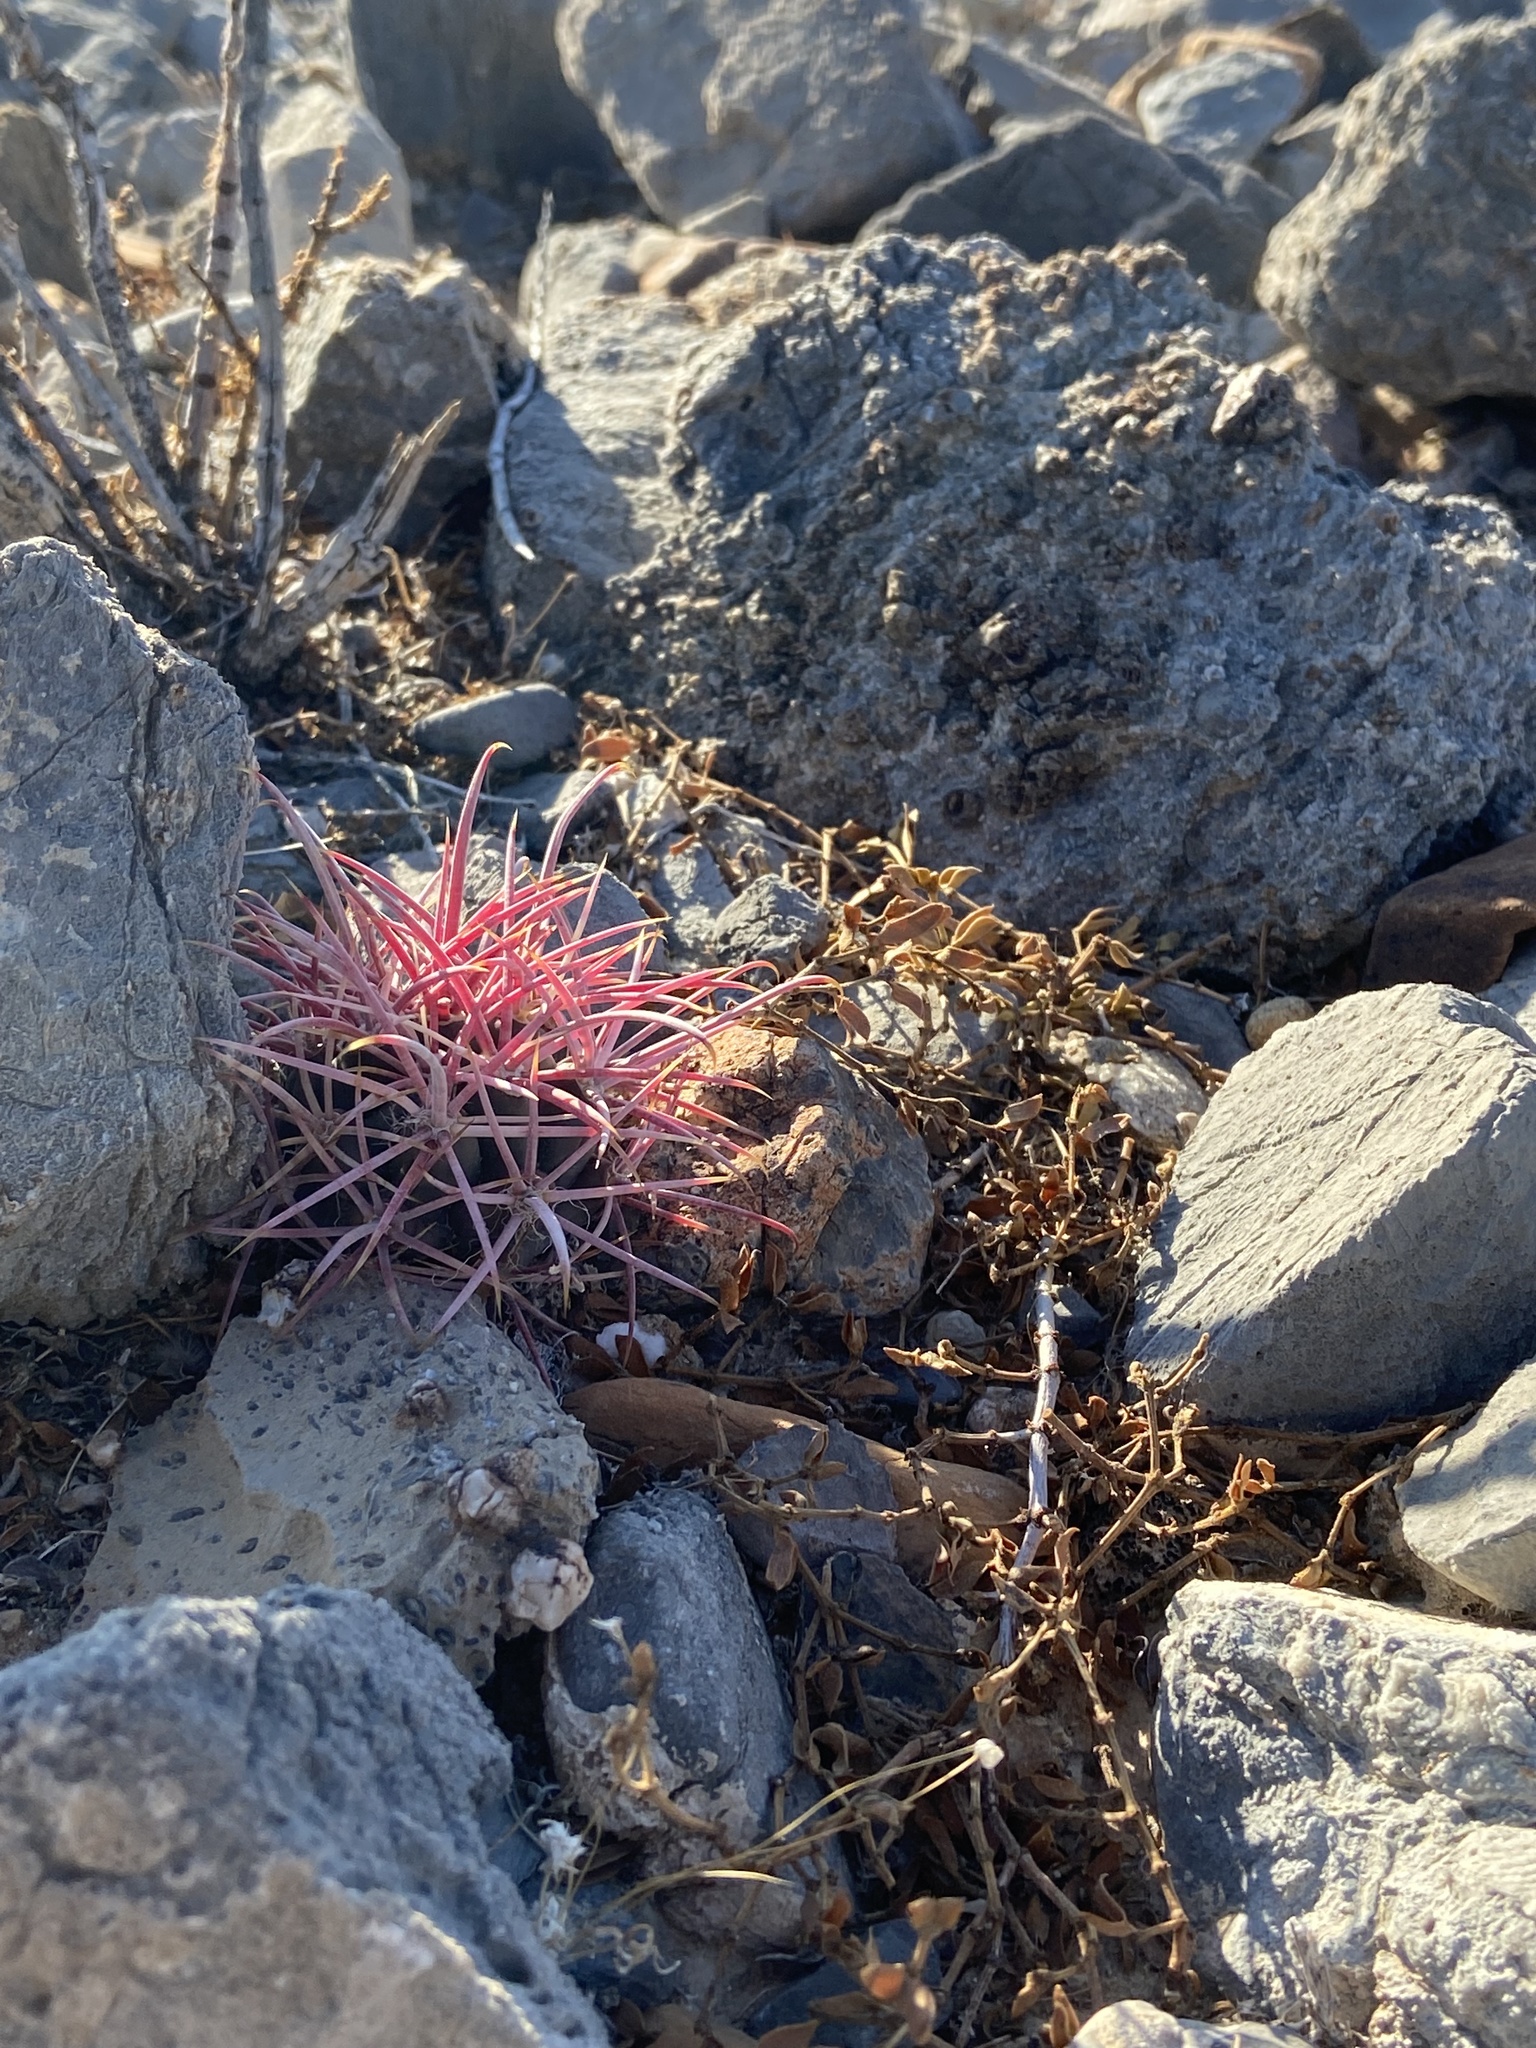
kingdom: Plantae
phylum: Tracheophyta
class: Magnoliopsida
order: Caryophyllales
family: Cactaceae
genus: Ferocactus
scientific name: Ferocactus cylindraceus
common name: California barrel cactus
